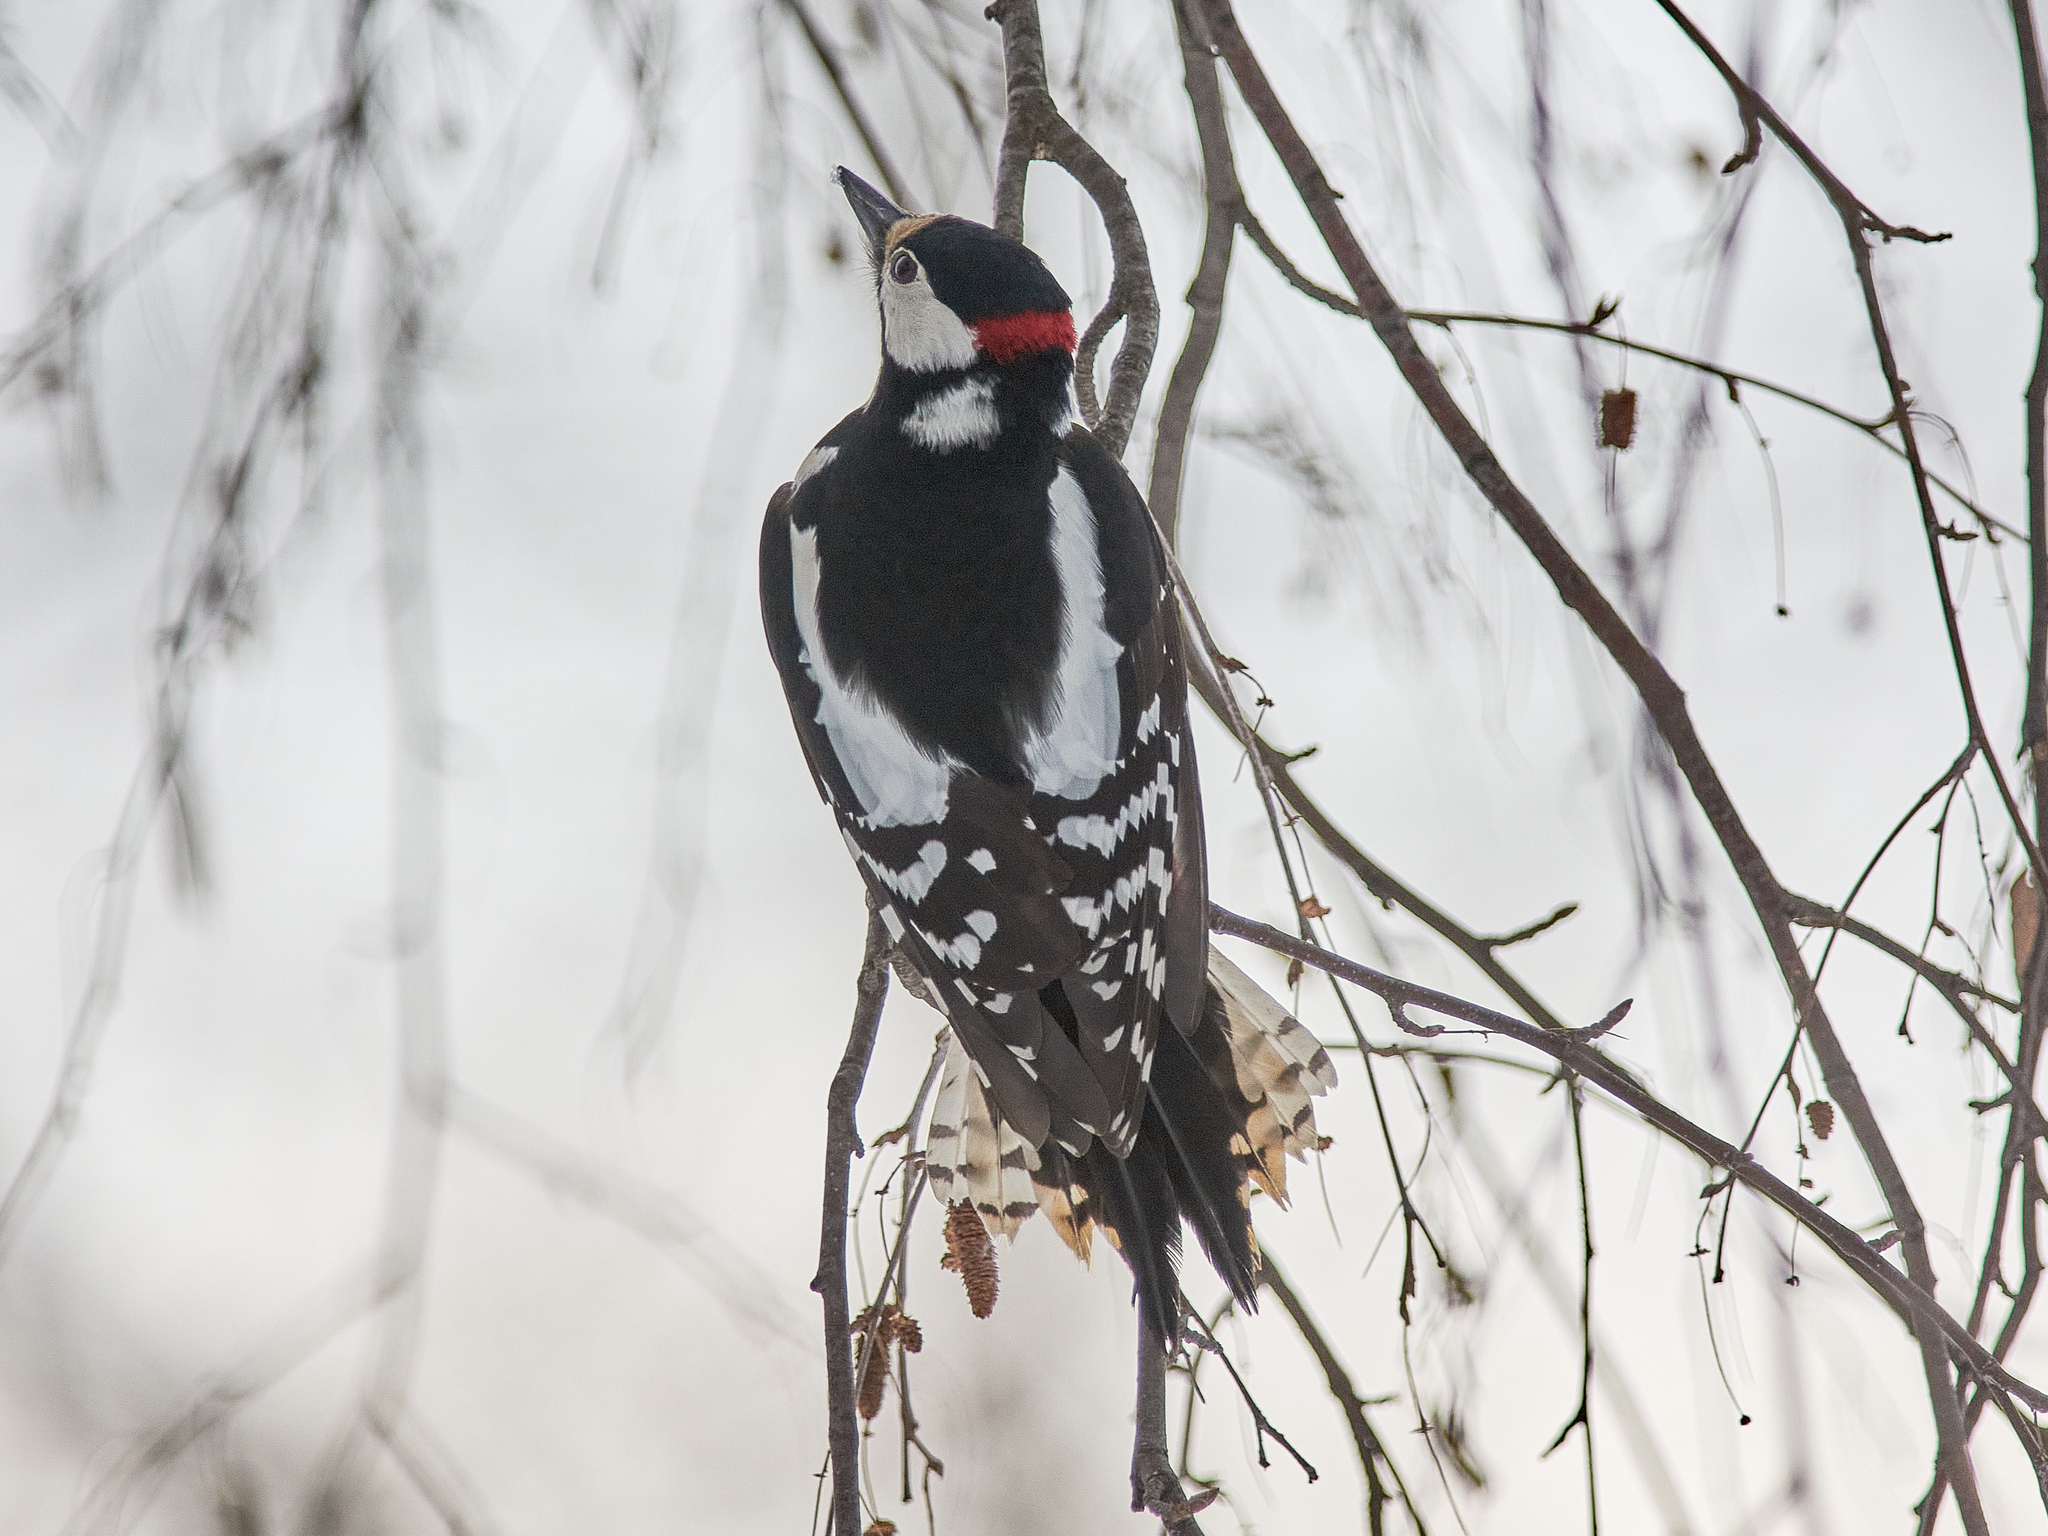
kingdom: Animalia
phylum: Chordata
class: Aves
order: Piciformes
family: Picidae
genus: Dendrocopos
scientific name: Dendrocopos major
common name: Great spotted woodpecker
